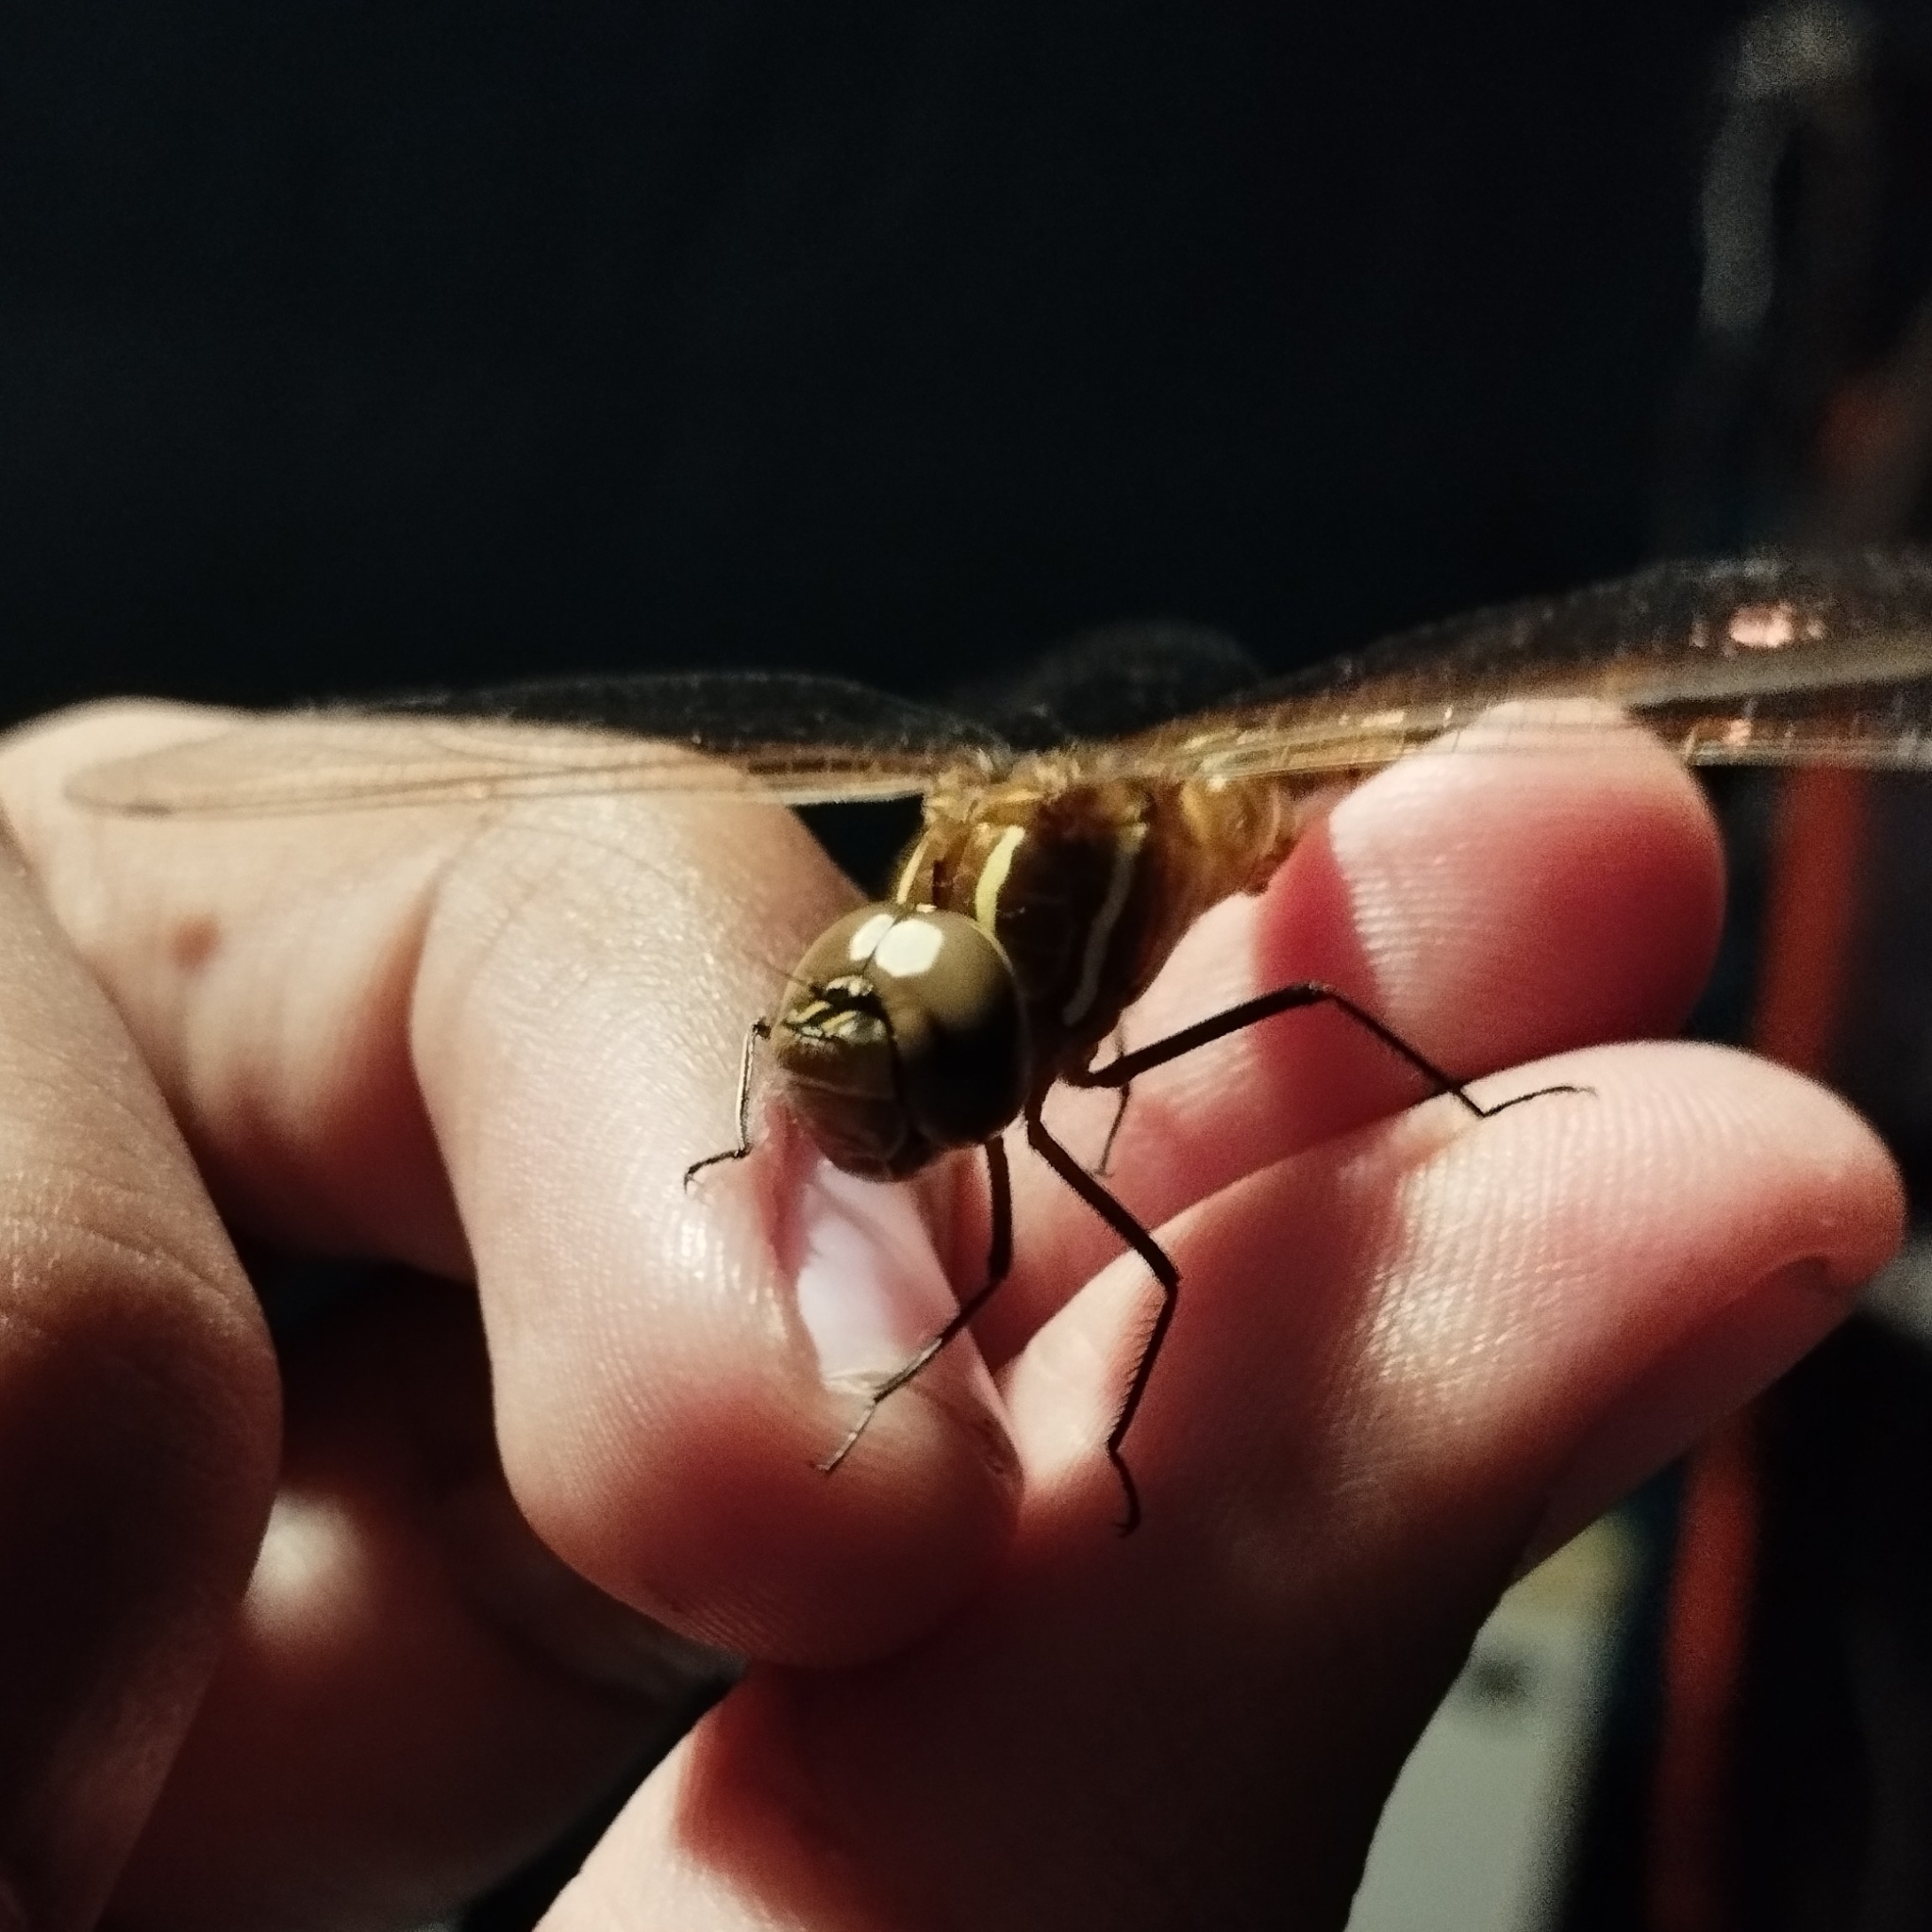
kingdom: Animalia
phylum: Arthropoda
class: Insecta
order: Odonata
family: Aeshnidae
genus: Rhionaeschna
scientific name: Rhionaeschna confusa
